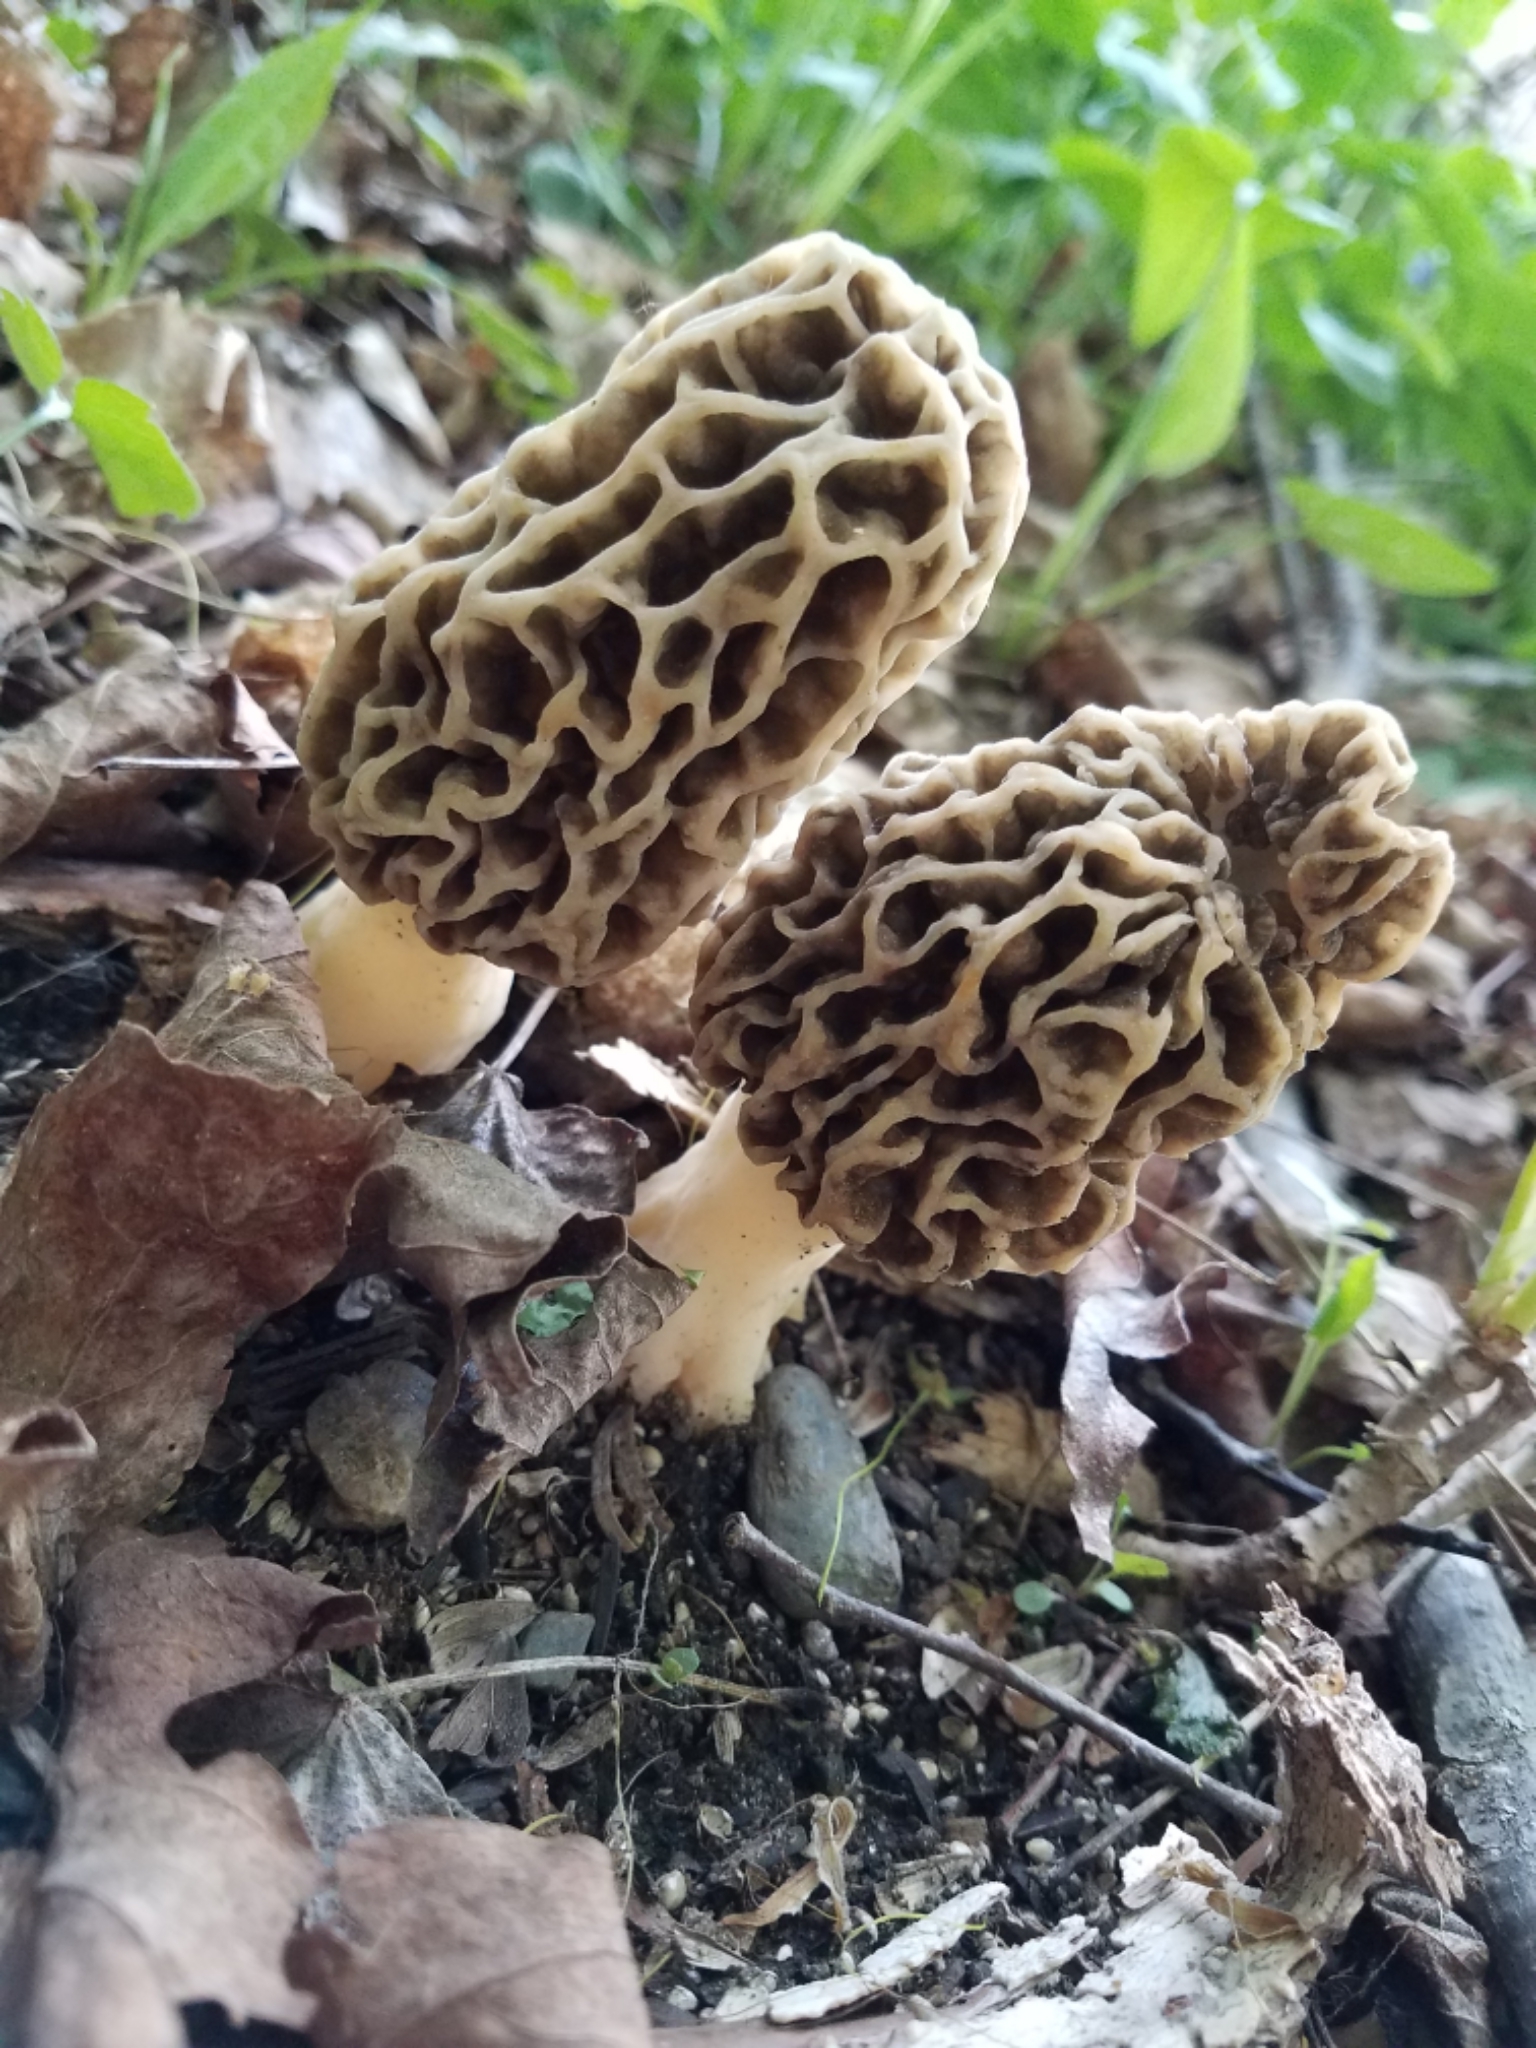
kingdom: Fungi
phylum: Ascomycota
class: Pezizomycetes
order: Pezizales
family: Morchellaceae
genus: Morchella
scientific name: Morchella americana
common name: White morel
